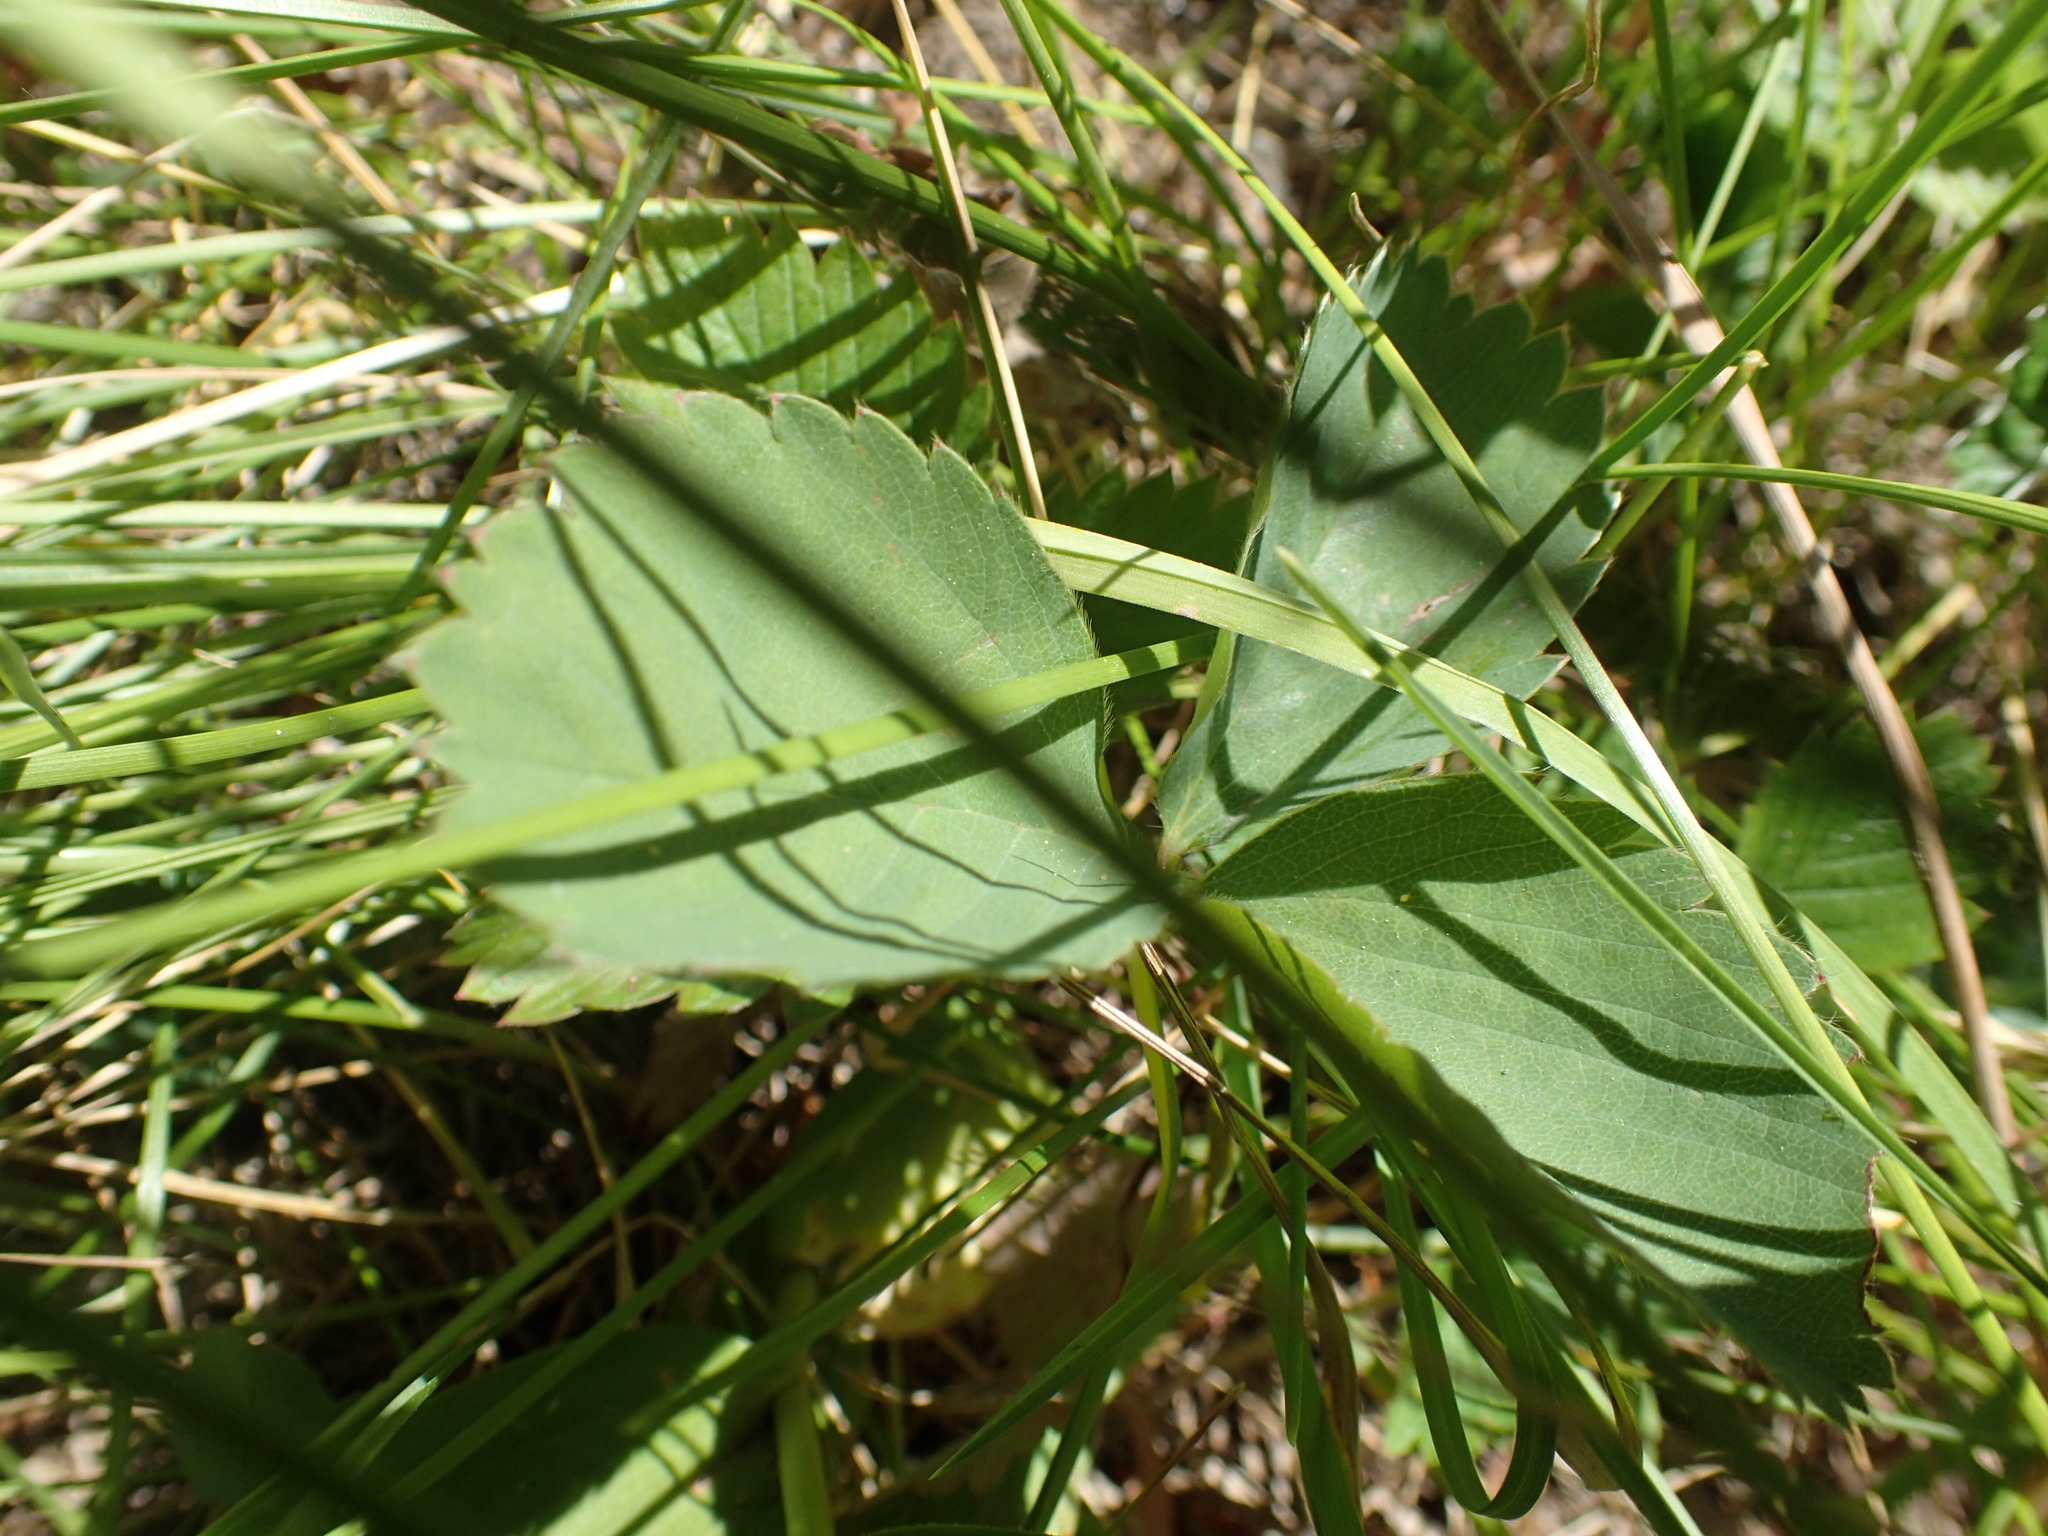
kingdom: Plantae
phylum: Tracheophyta
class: Magnoliopsida
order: Rosales
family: Rosaceae
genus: Fragaria
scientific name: Fragaria virginiana
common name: Thickleaved wild strawberry
